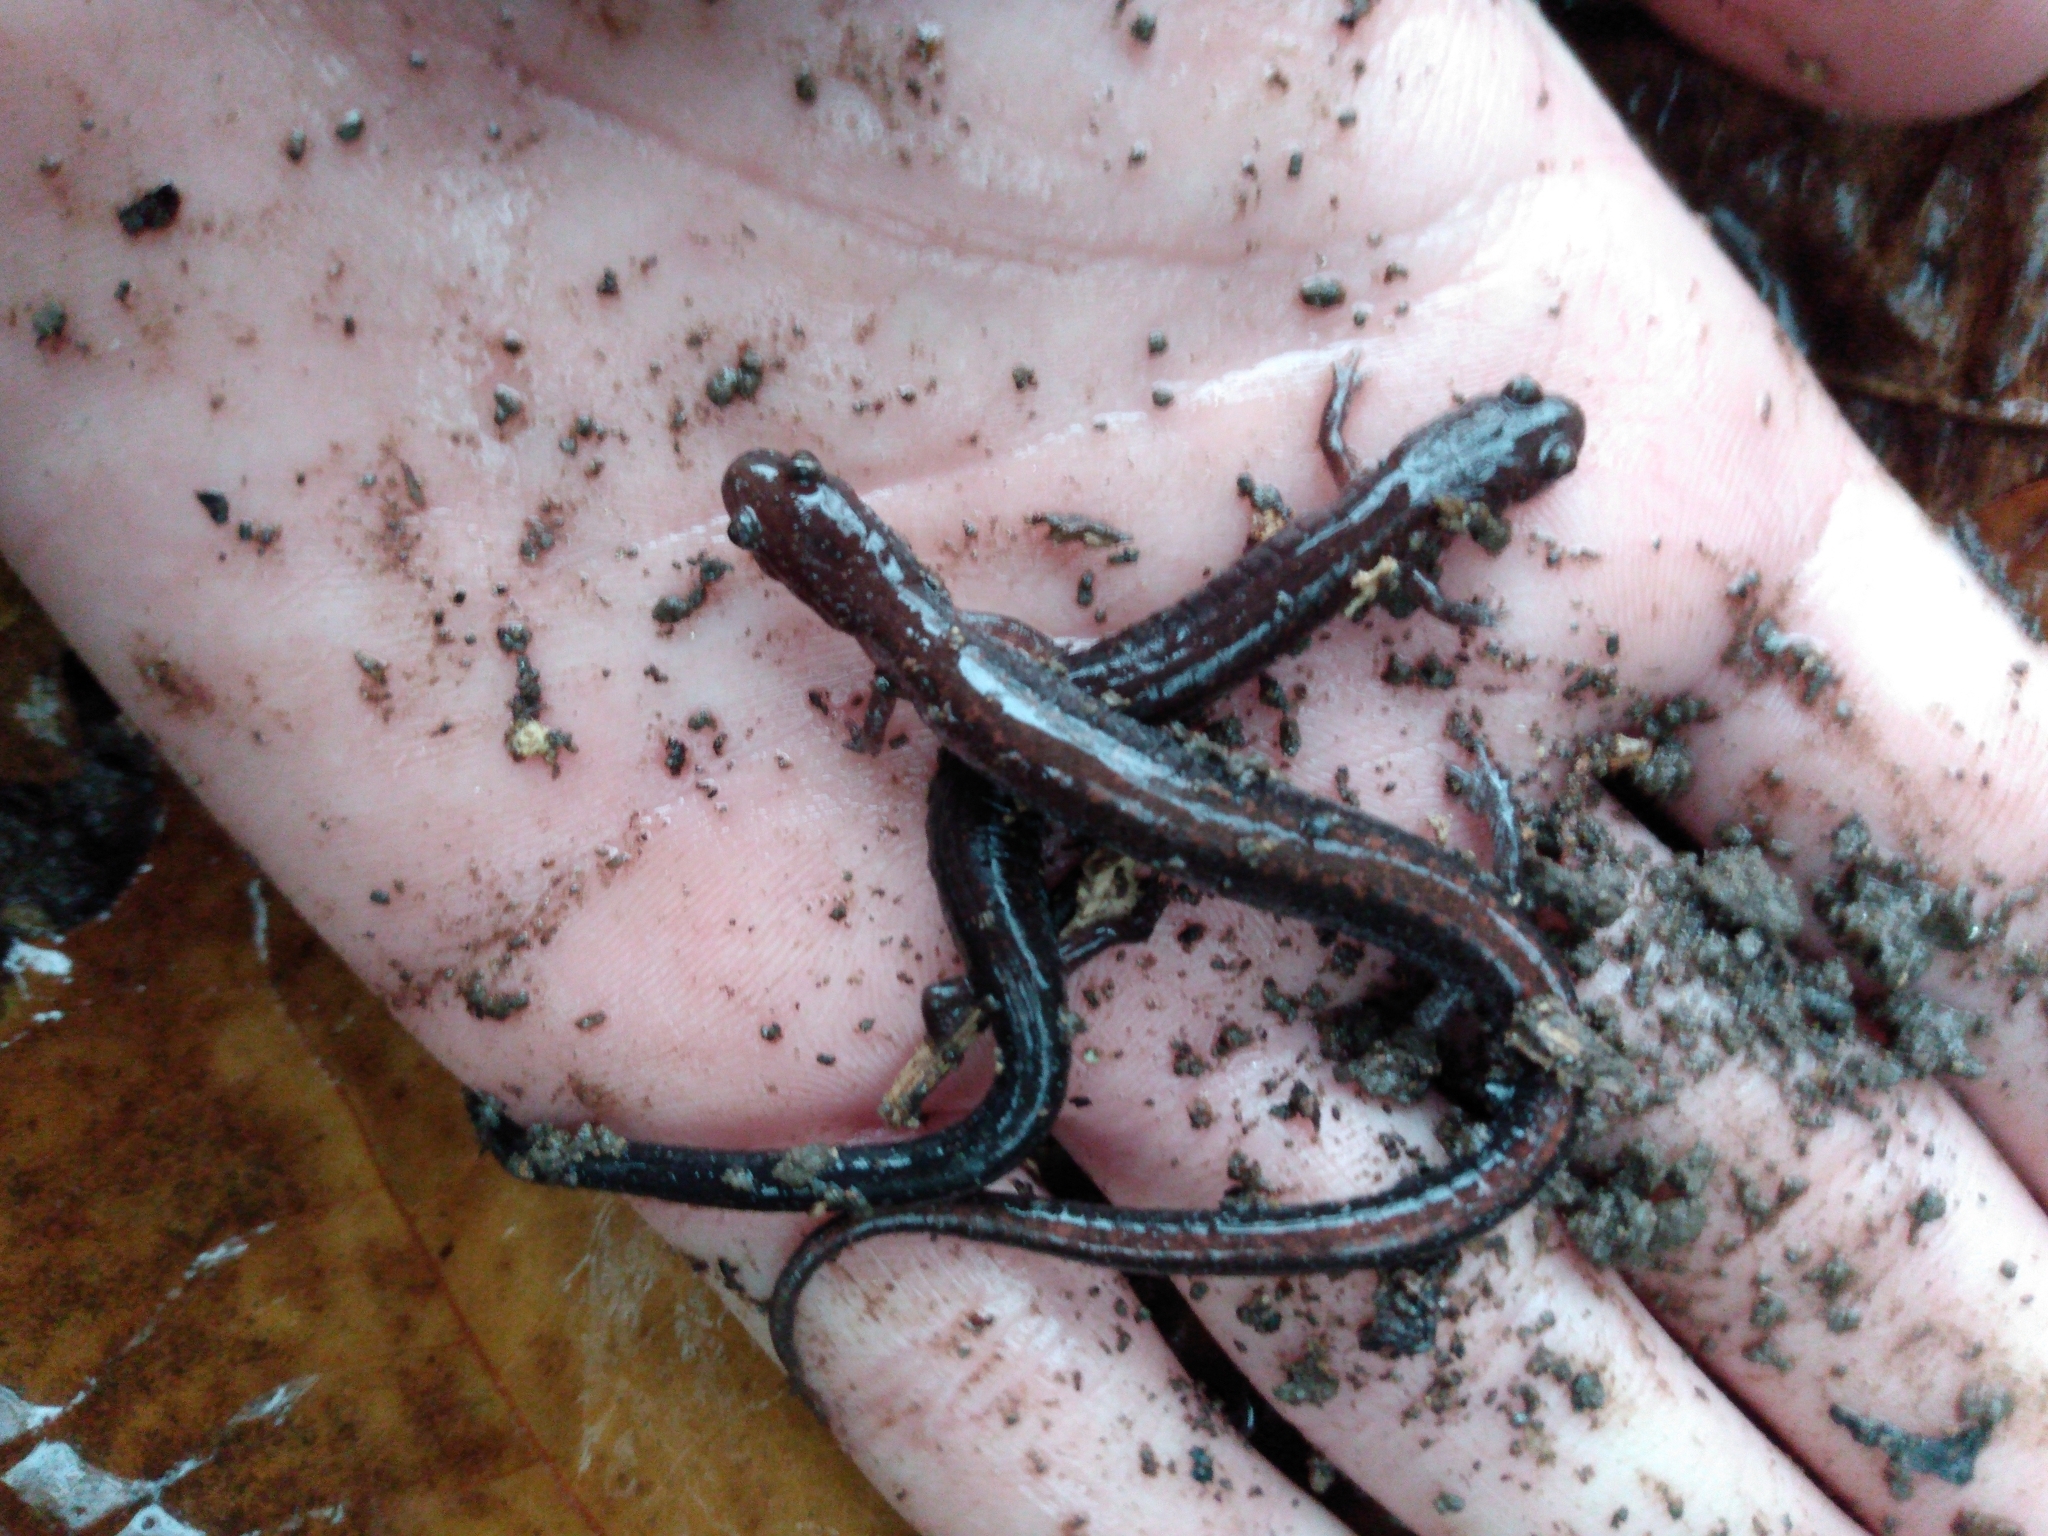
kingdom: Animalia
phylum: Chordata
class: Amphibia
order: Caudata
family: Plethodontidae
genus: Plethodon
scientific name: Plethodon serratus
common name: Southern red-backed salamander
